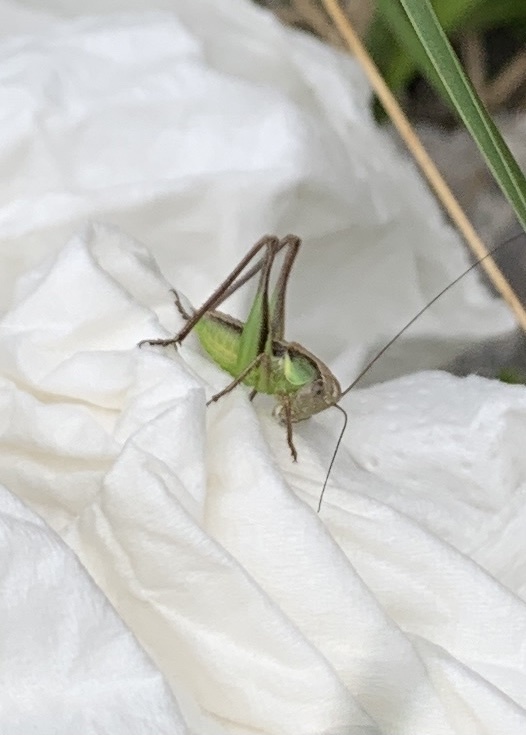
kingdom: Animalia
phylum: Arthropoda
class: Insecta
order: Orthoptera
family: Tettigoniidae
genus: Roeseliana
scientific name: Roeseliana roeselii
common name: Roesel's bush cricket
